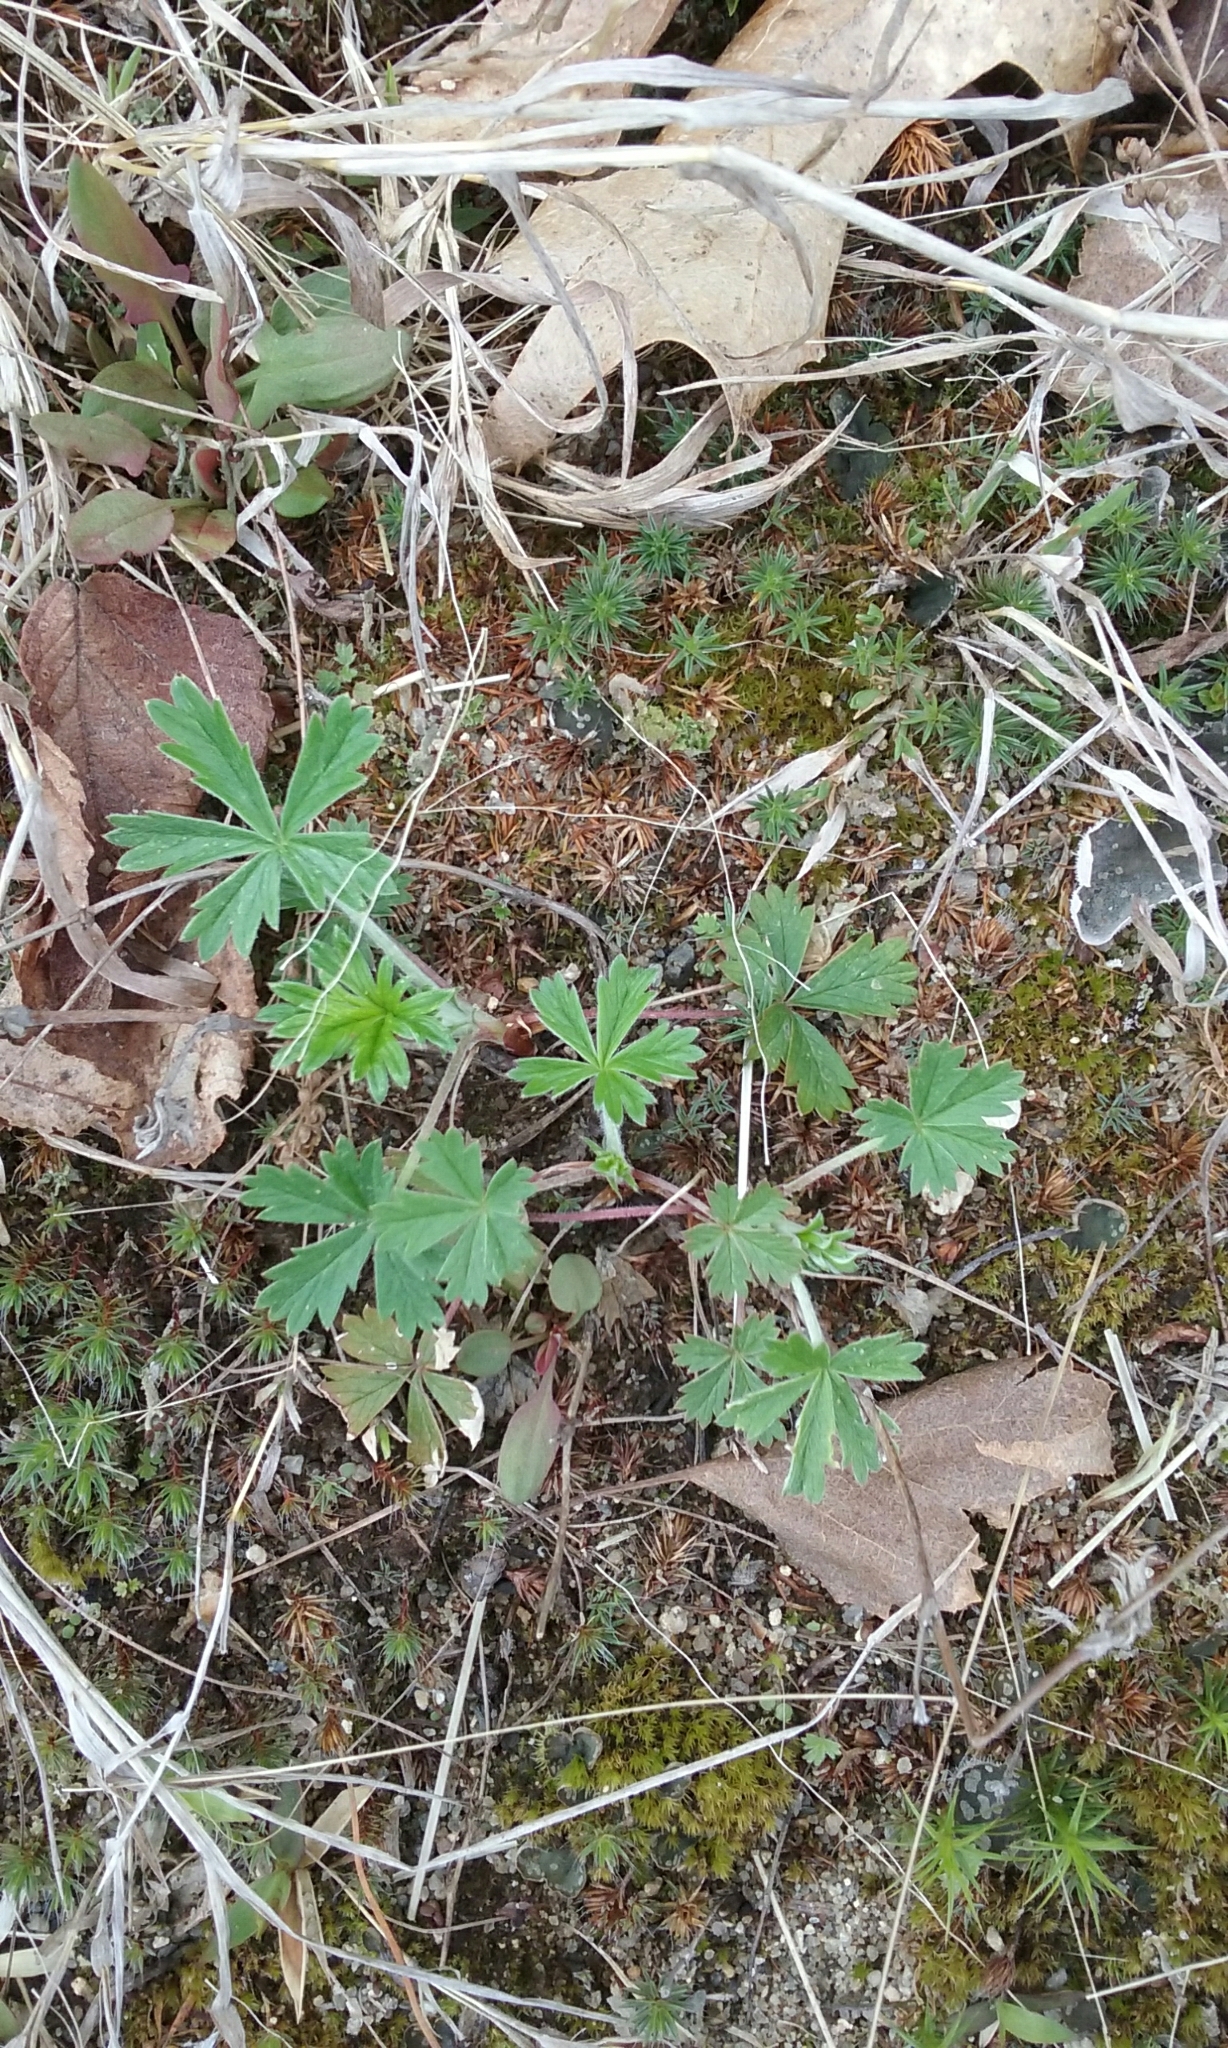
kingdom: Plantae
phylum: Tracheophyta
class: Magnoliopsida
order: Rosales
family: Rosaceae
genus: Potentilla
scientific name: Potentilla argentea
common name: Hoary cinquefoil
